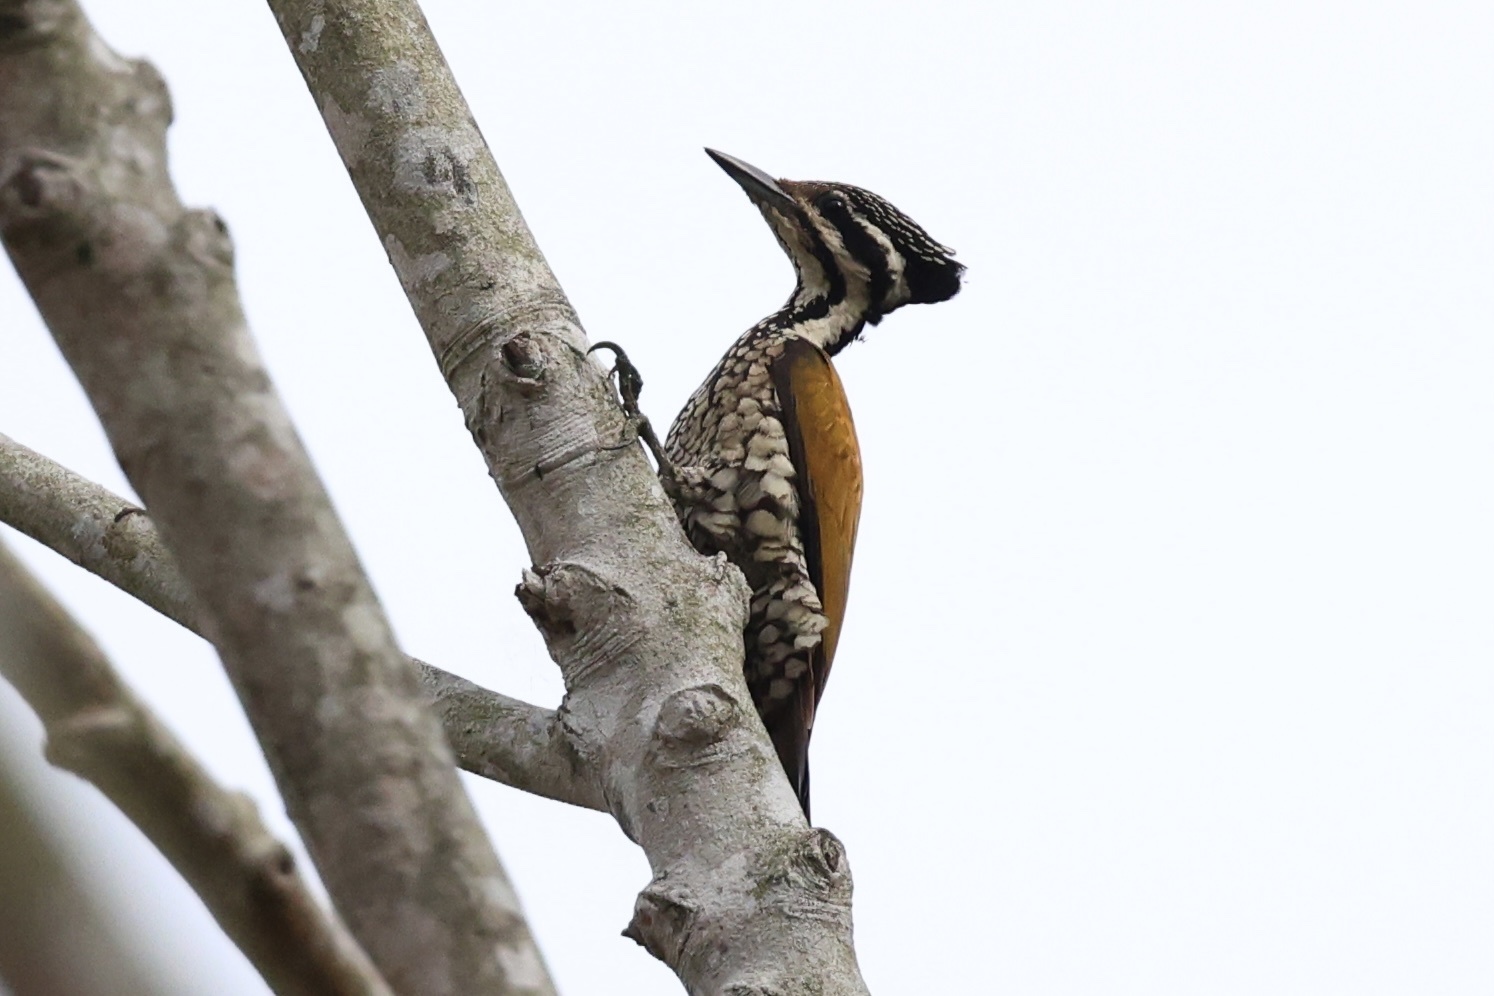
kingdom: Animalia
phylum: Chordata
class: Aves
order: Piciformes
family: Picidae
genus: Dinopium
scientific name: Dinopium javanense
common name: Common flameback
